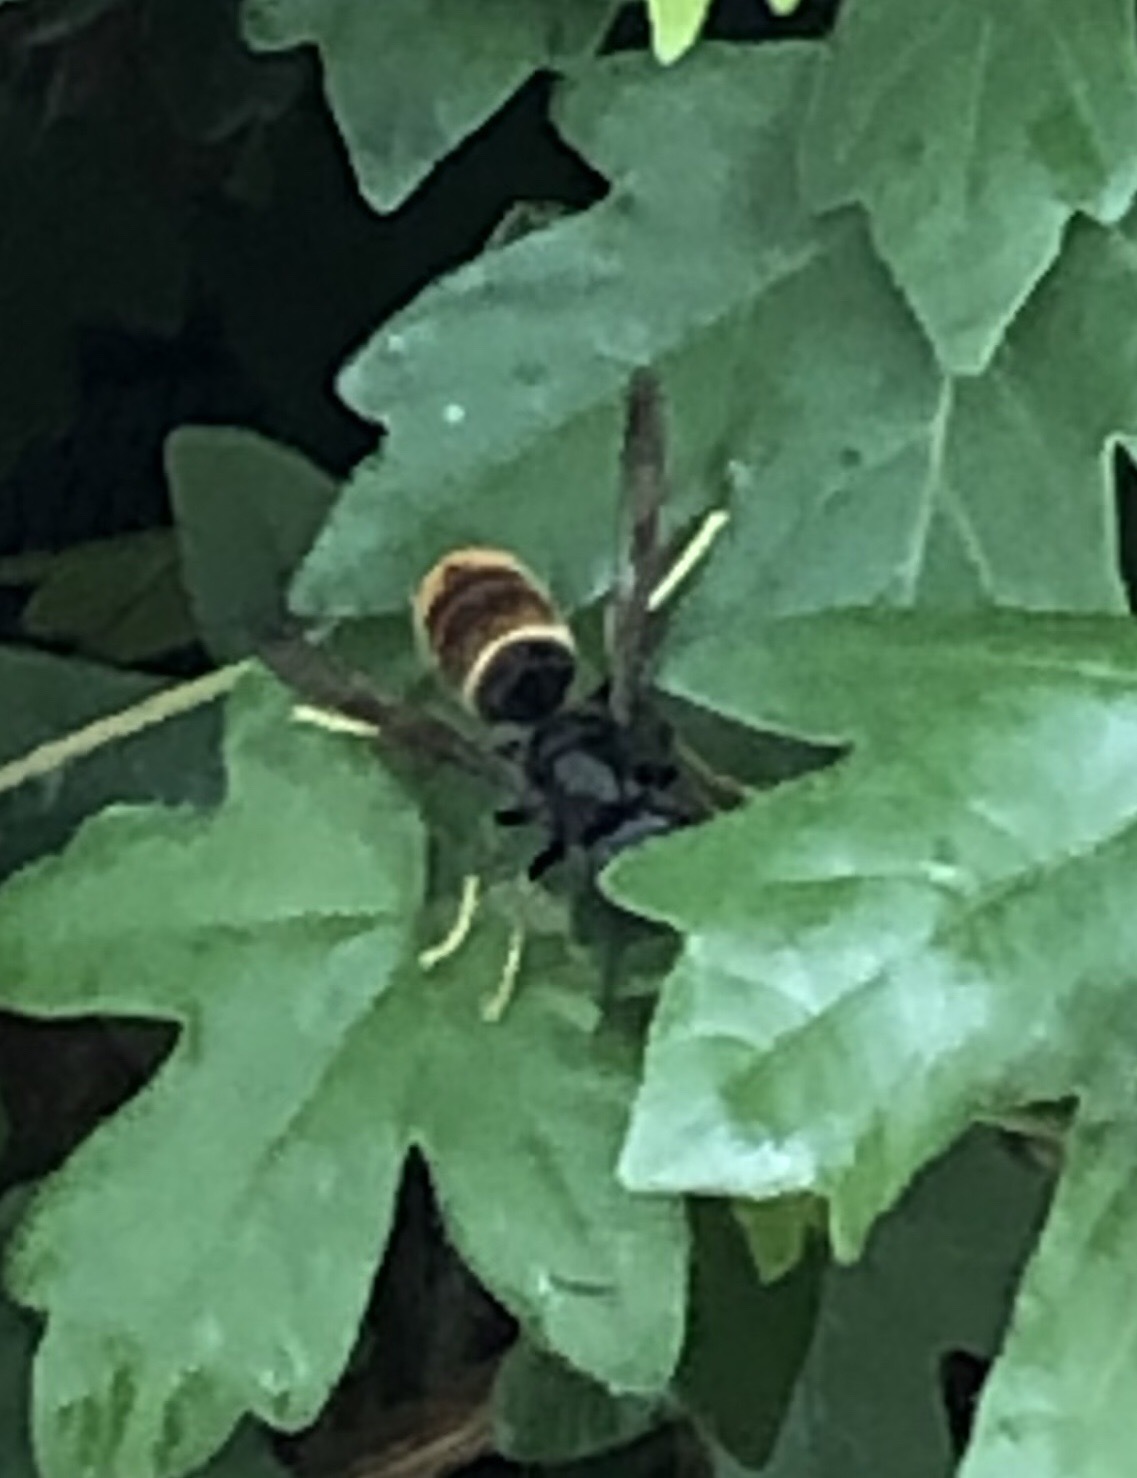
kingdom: Animalia
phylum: Arthropoda
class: Insecta
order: Hymenoptera
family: Vespidae
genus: Vespa
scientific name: Vespa velutina
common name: Asian hornet
